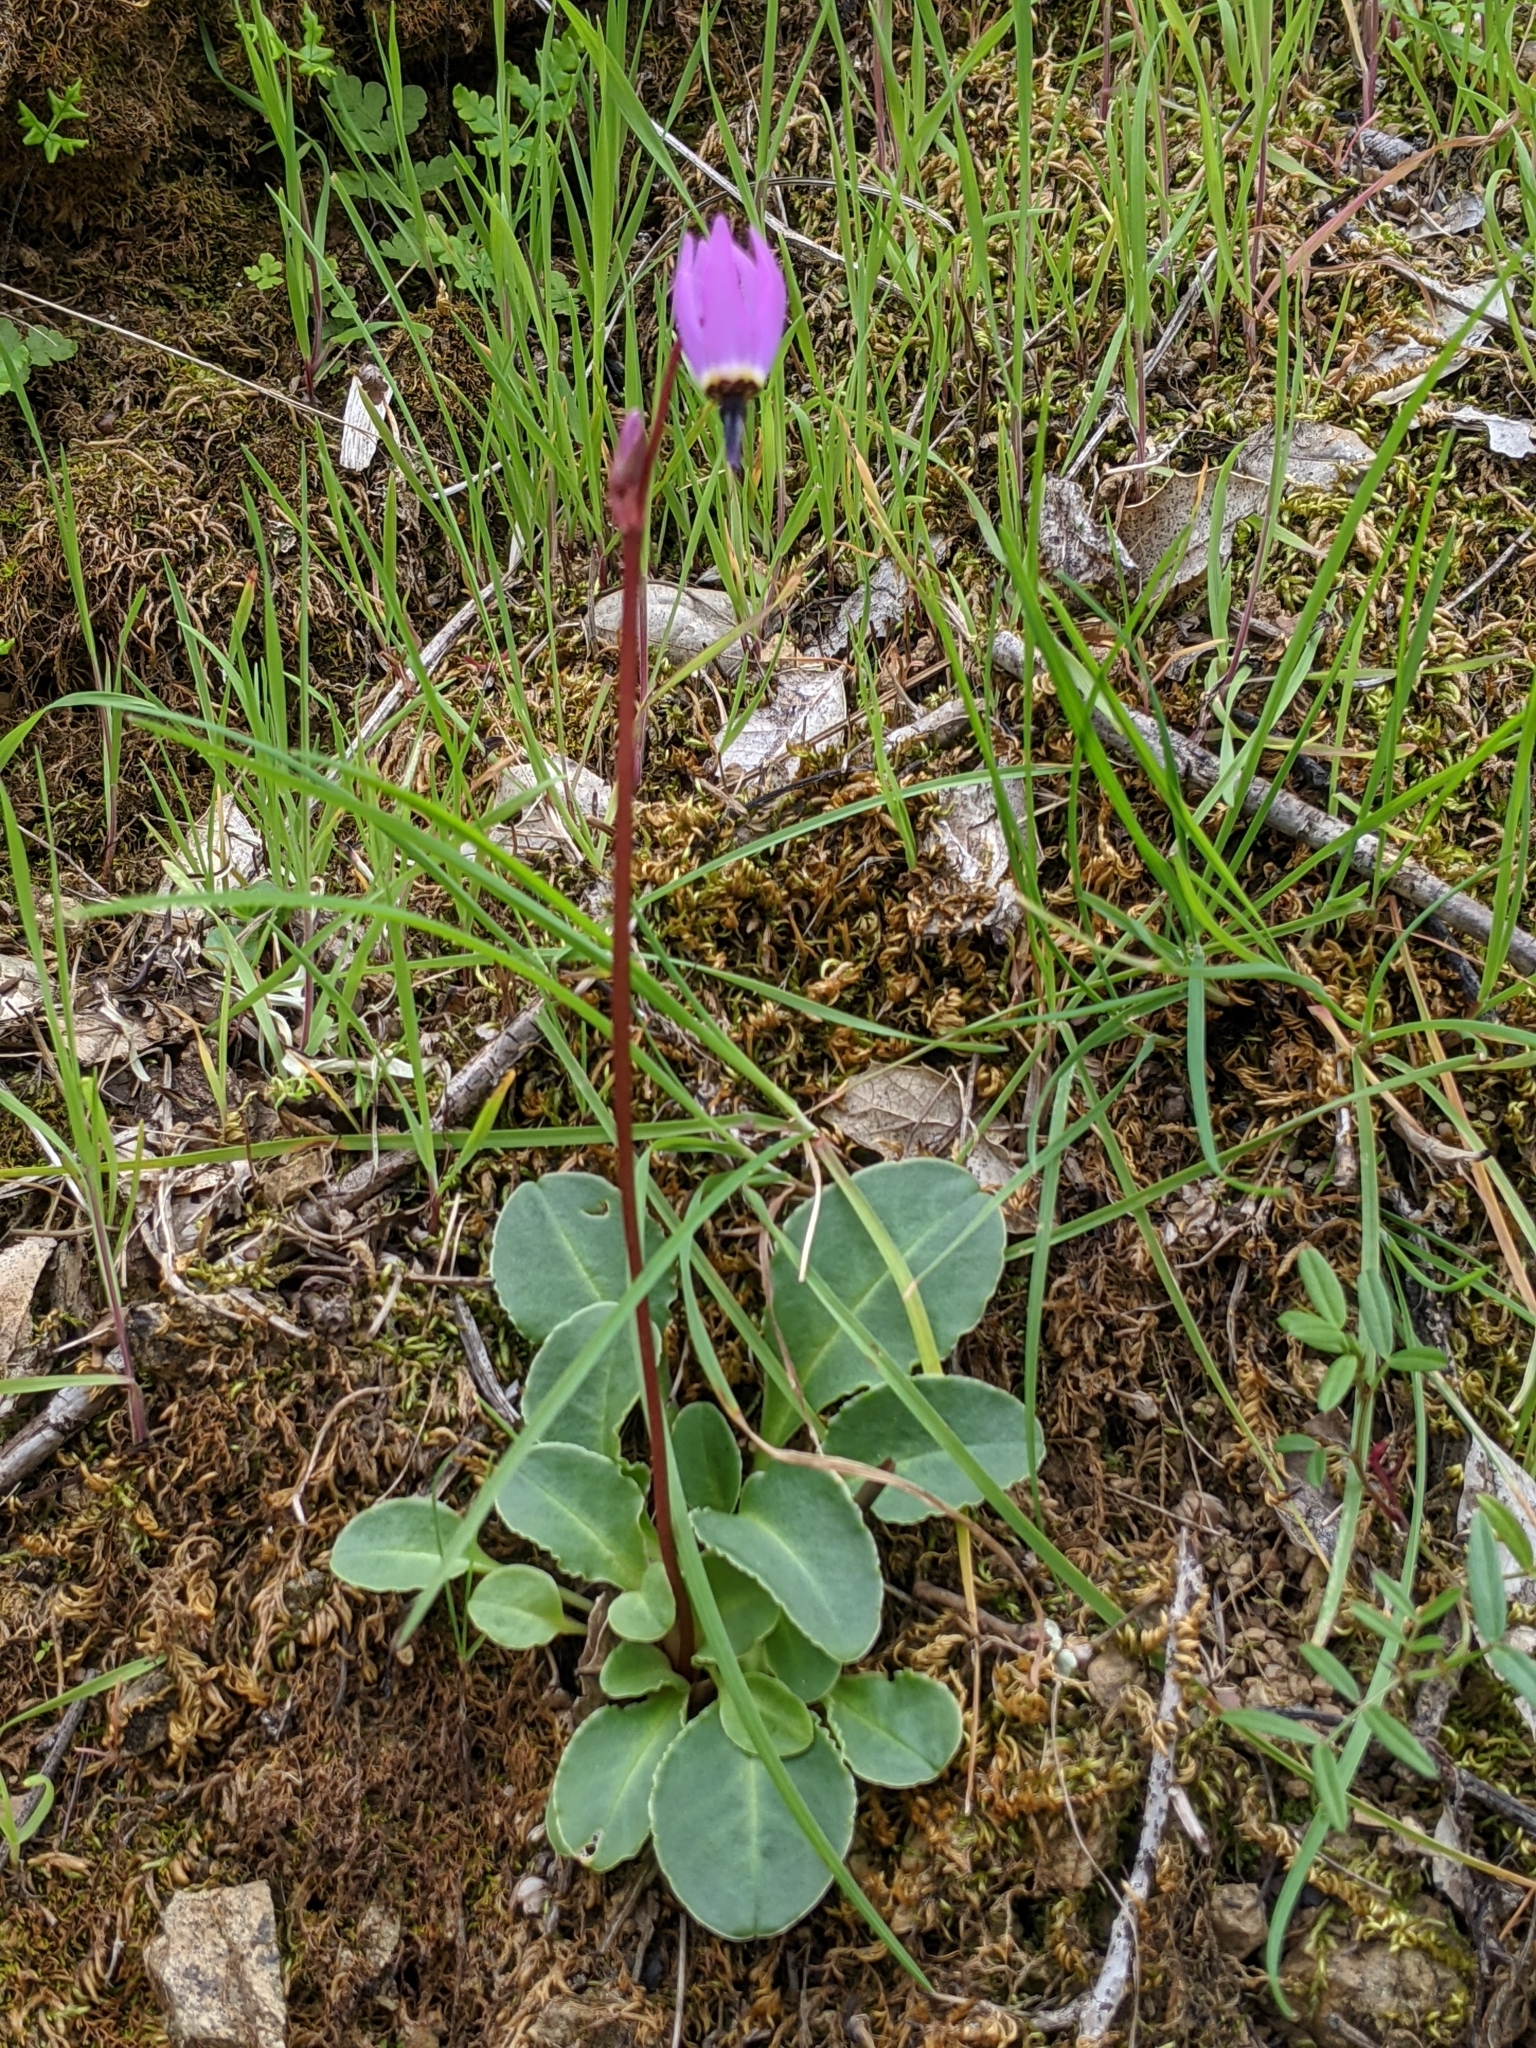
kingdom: Plantae
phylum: Tracheophyta
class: Magnoliopsida
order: Ericales
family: Primulaceae
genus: Dodecatheon
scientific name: Dodecatheon hendersonii
